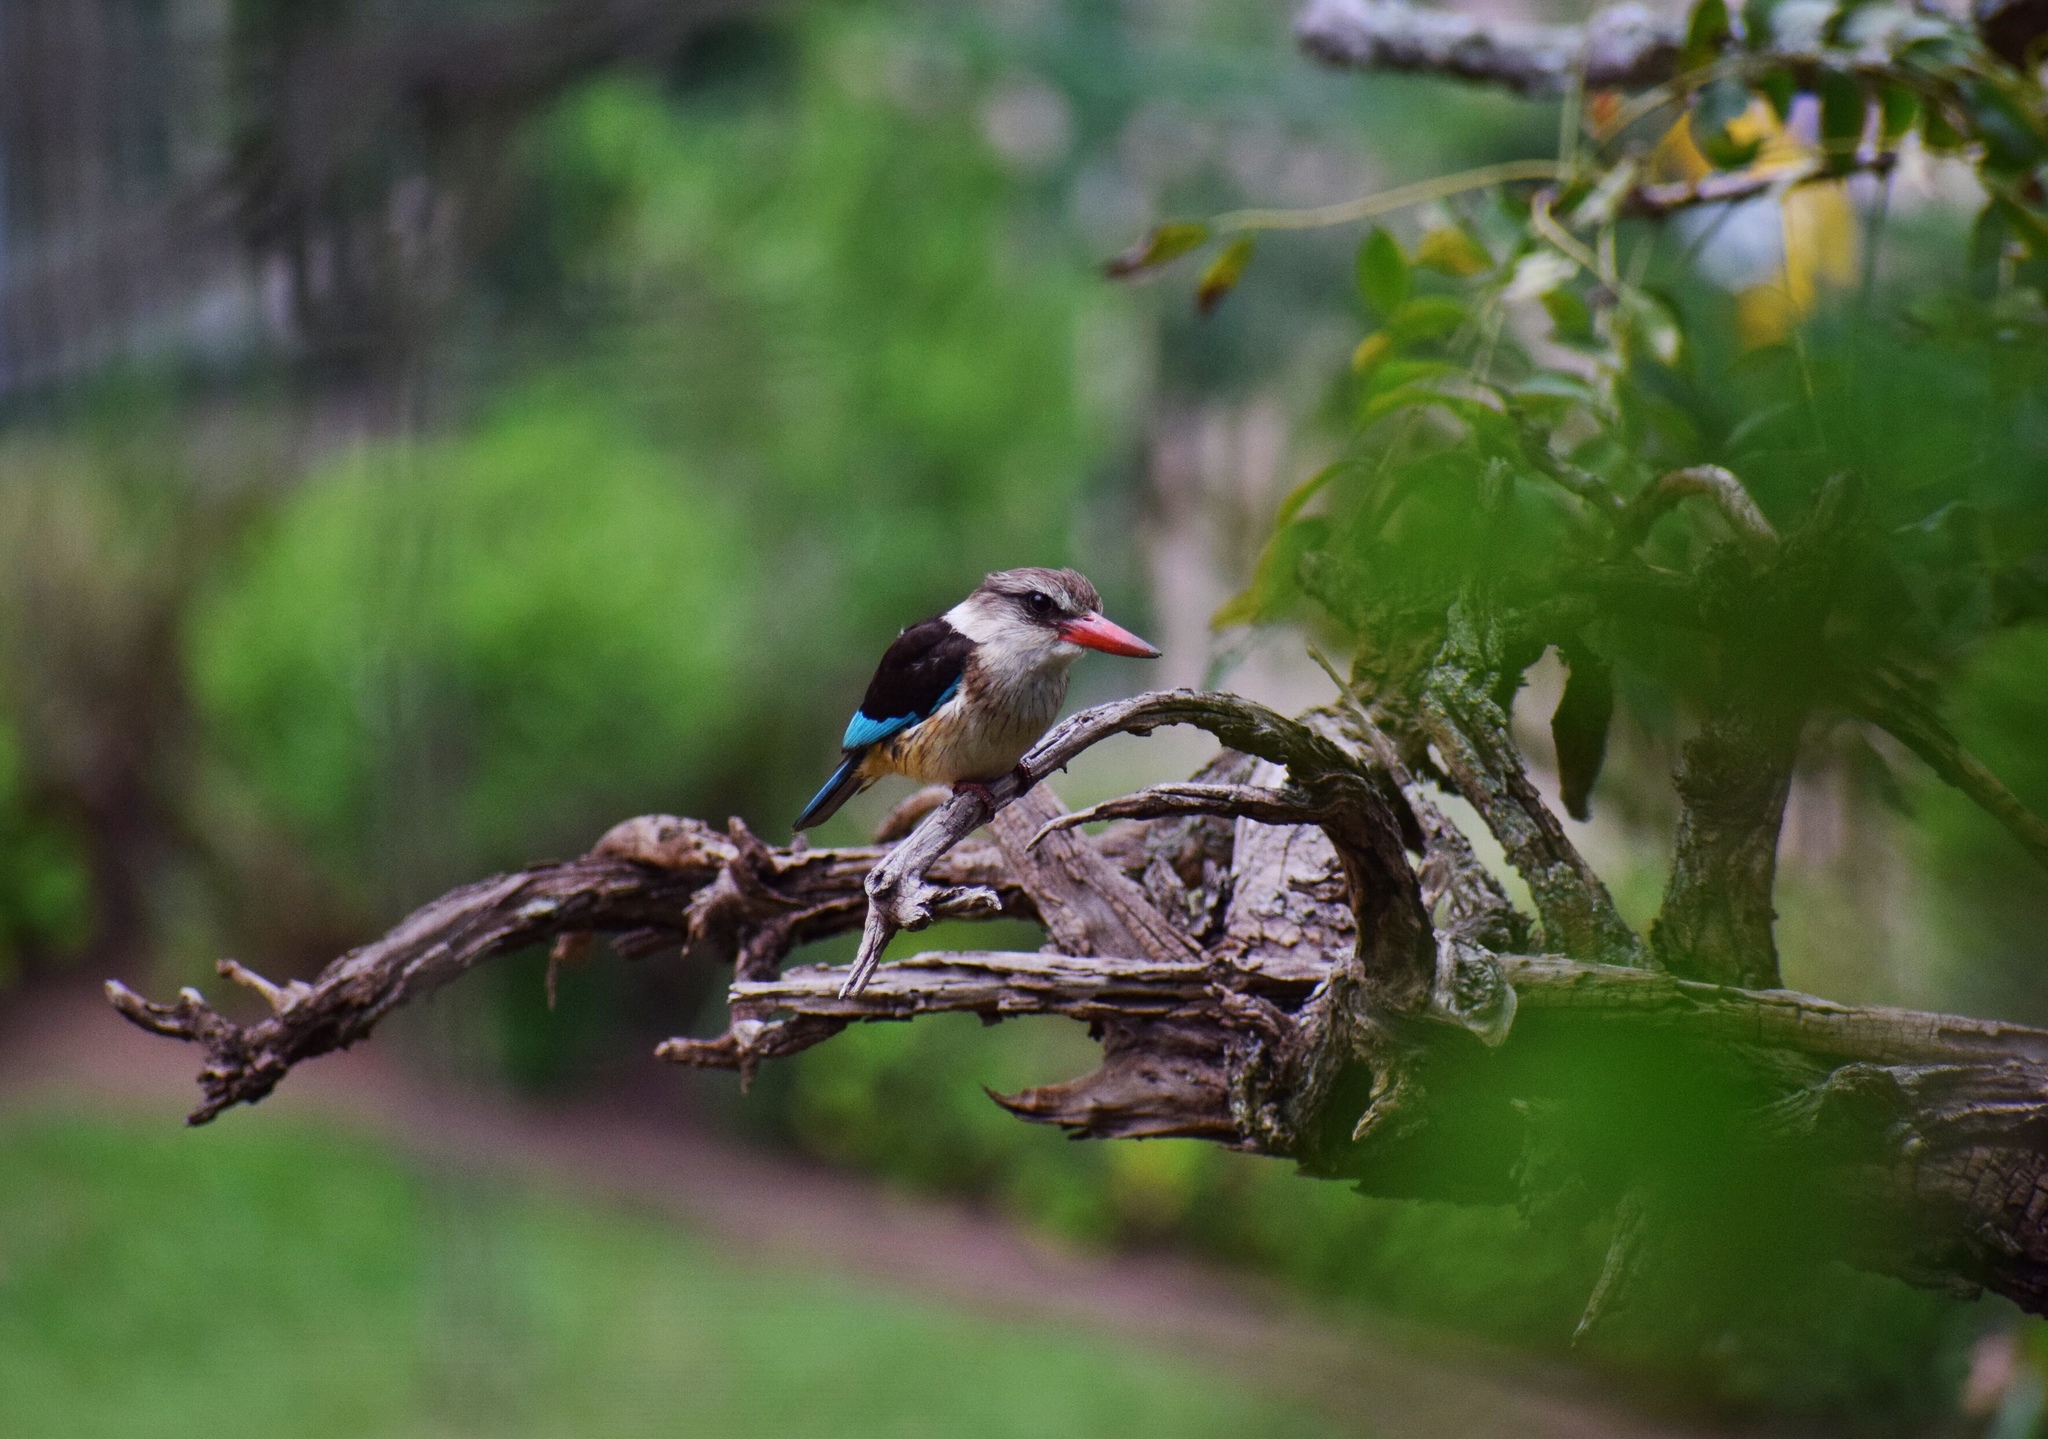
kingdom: Animalia
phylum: Chordata
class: Aves
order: Coraciiformes
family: Alcedinidae
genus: Halcyon
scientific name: Halcyon albiventris
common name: Brown-hooded kingfisher
